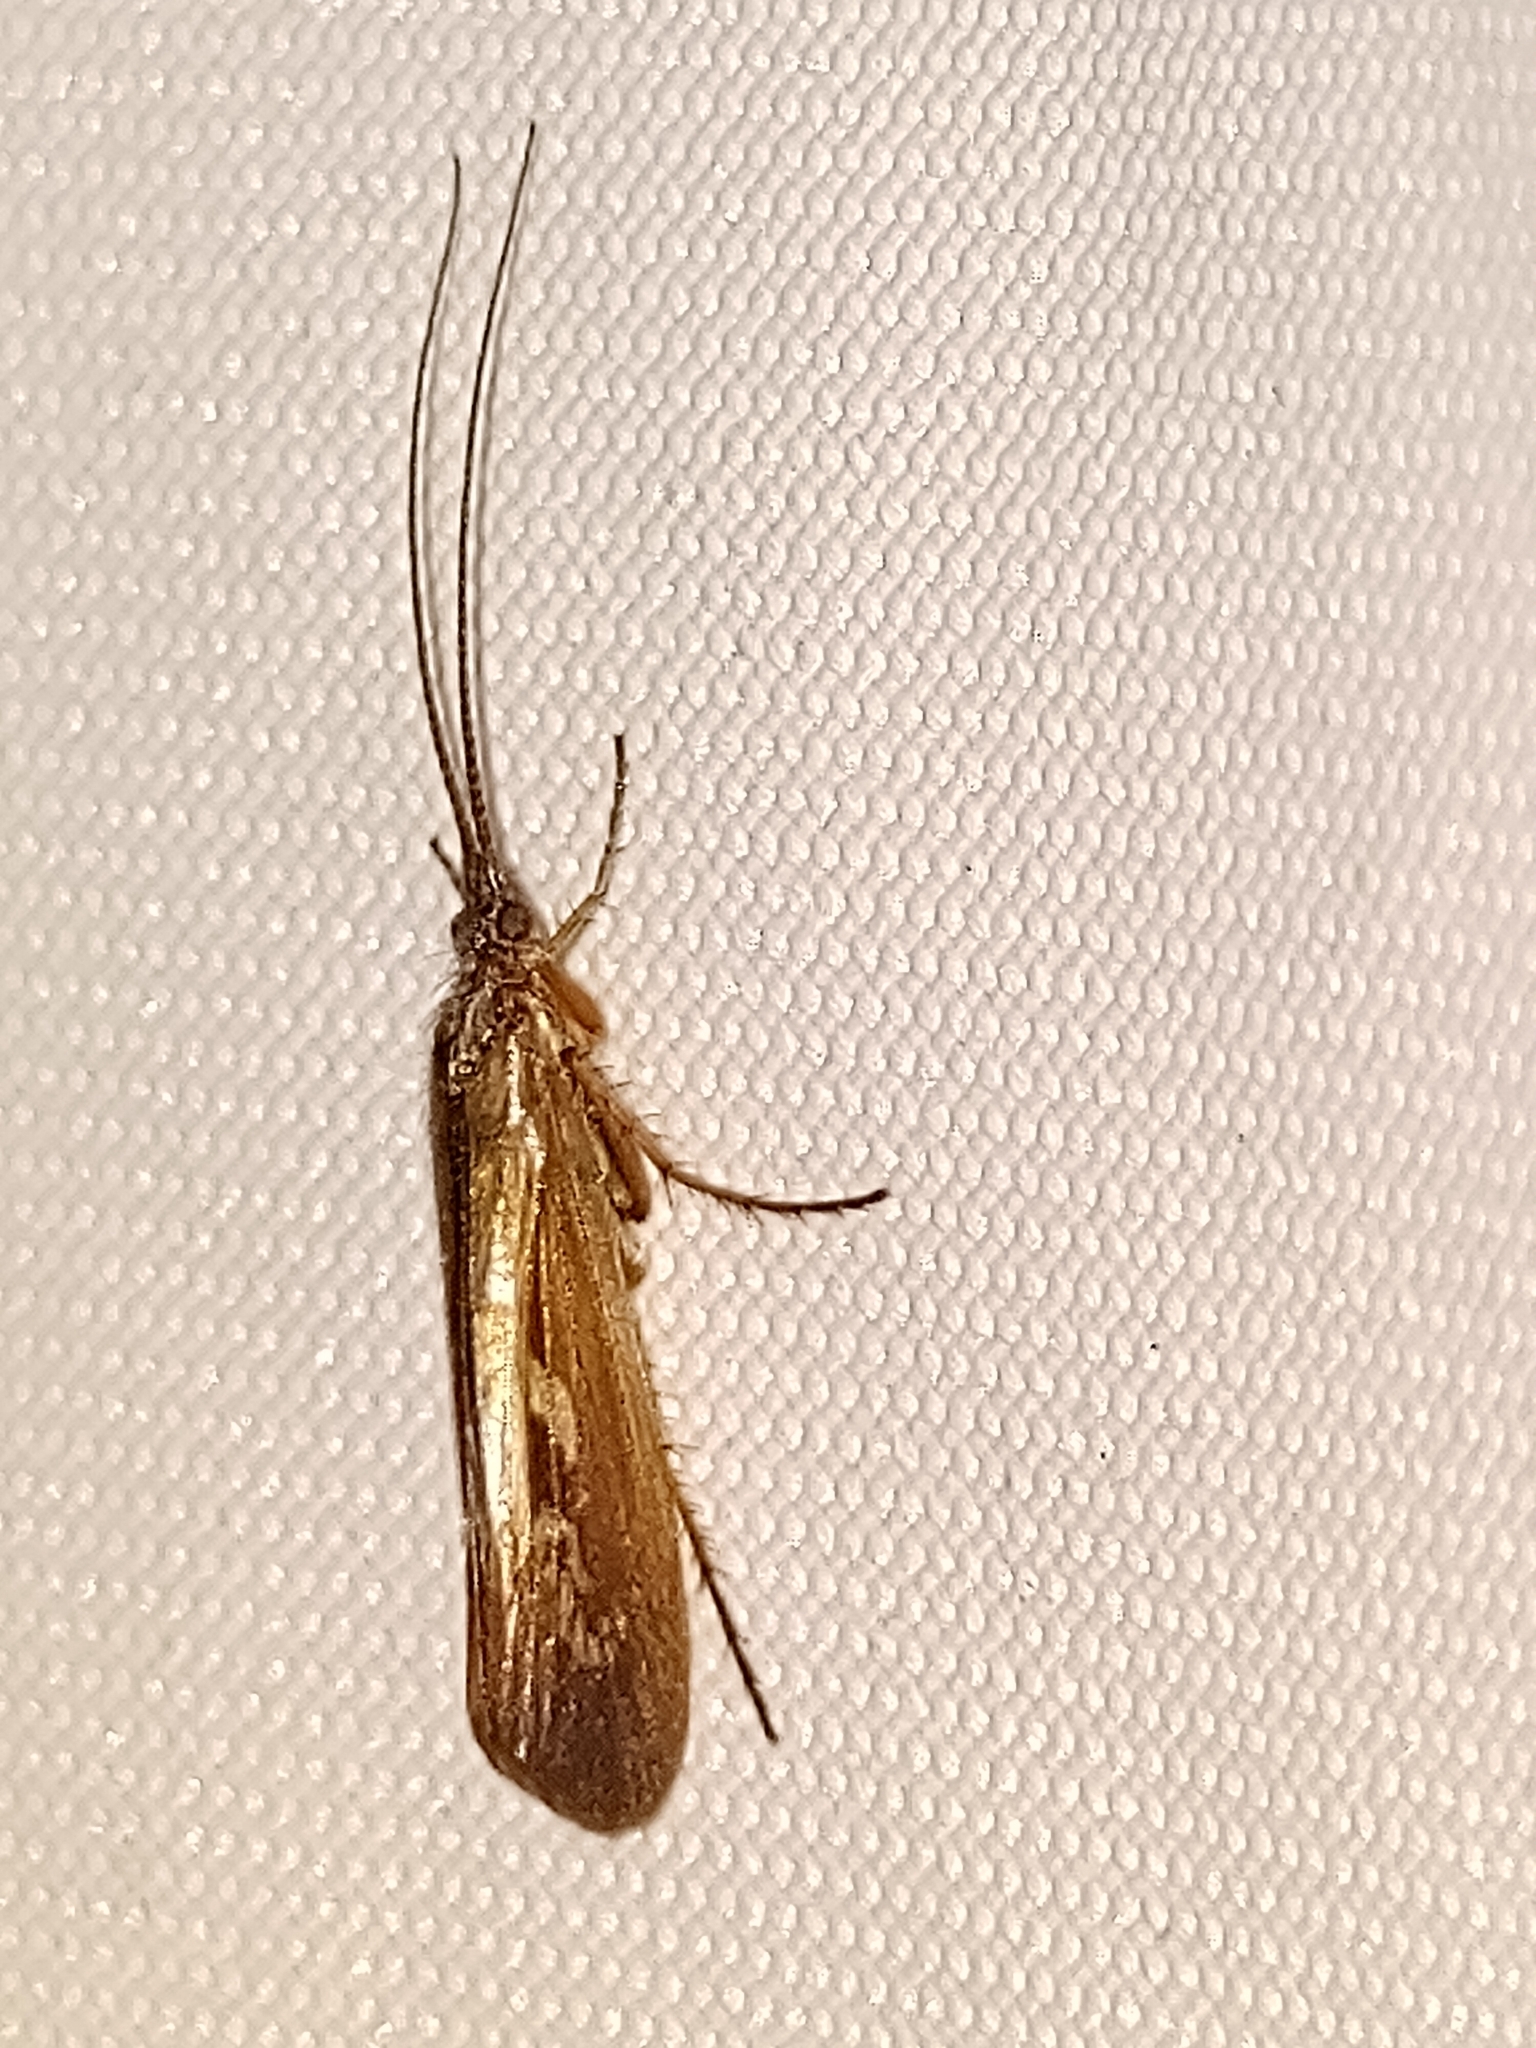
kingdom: Animalia
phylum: Arthropoda
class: Insecta
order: Trichoptera
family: Limnephilidae
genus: Limnephilus
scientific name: Limnephilus auricula
